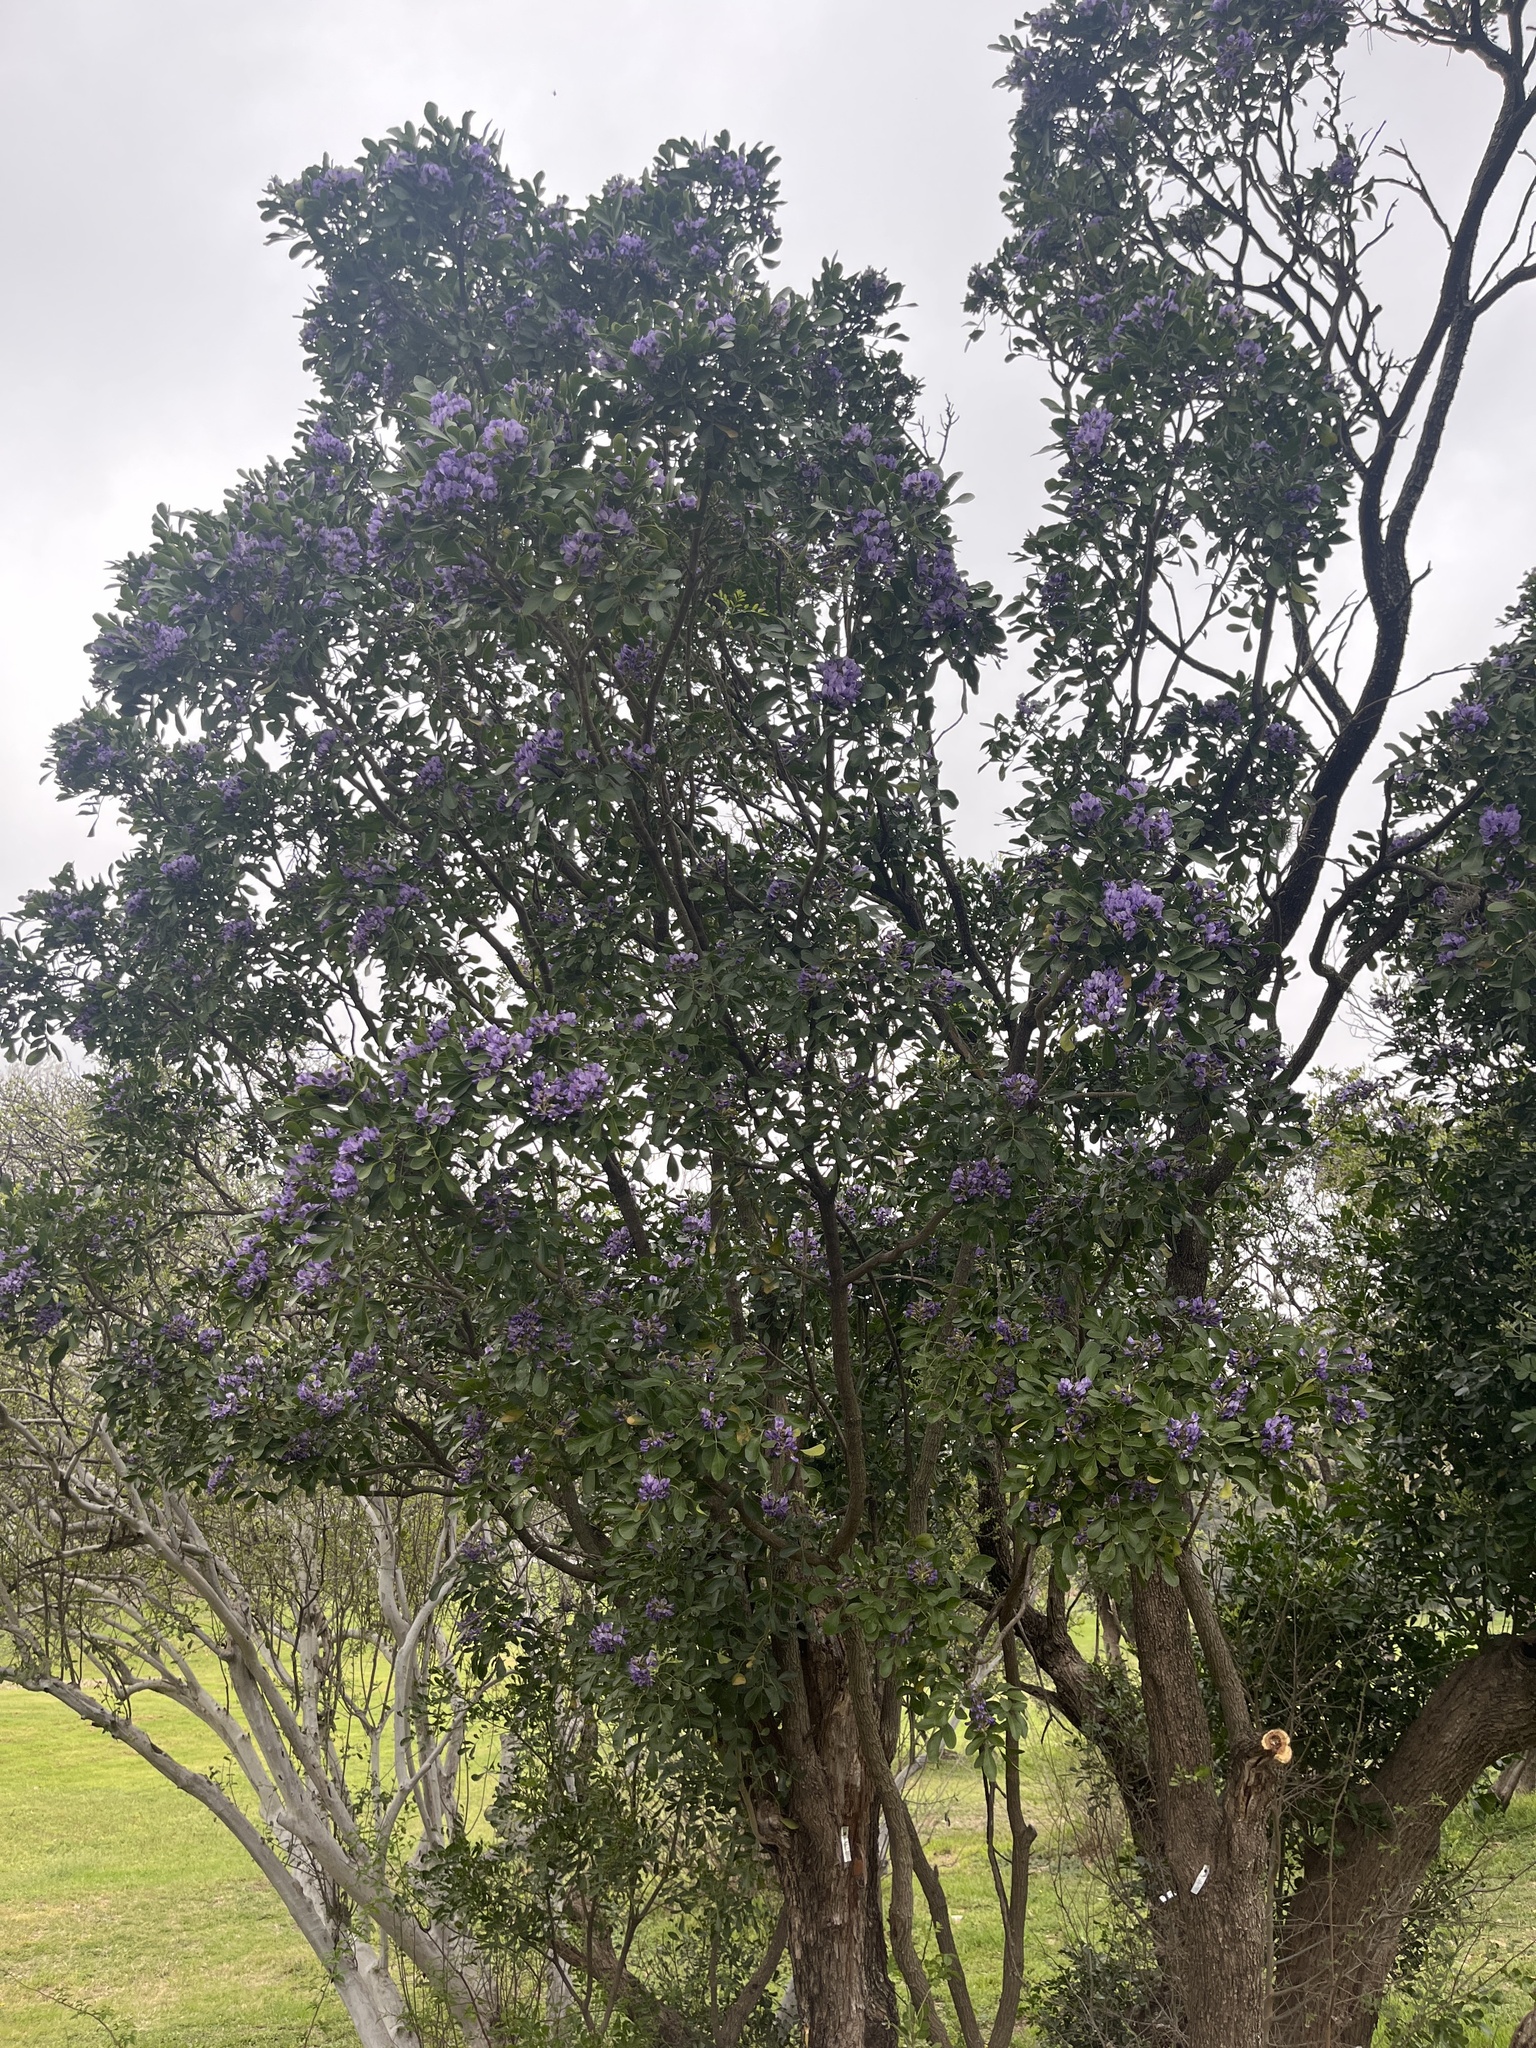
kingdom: Plantae
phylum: Tracheophyta
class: Magnoliopsida
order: Fabales
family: Fabaceae
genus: Dermatophyllum
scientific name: Dermatophyllum secundiflorum
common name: Texas-mountain-laurel
